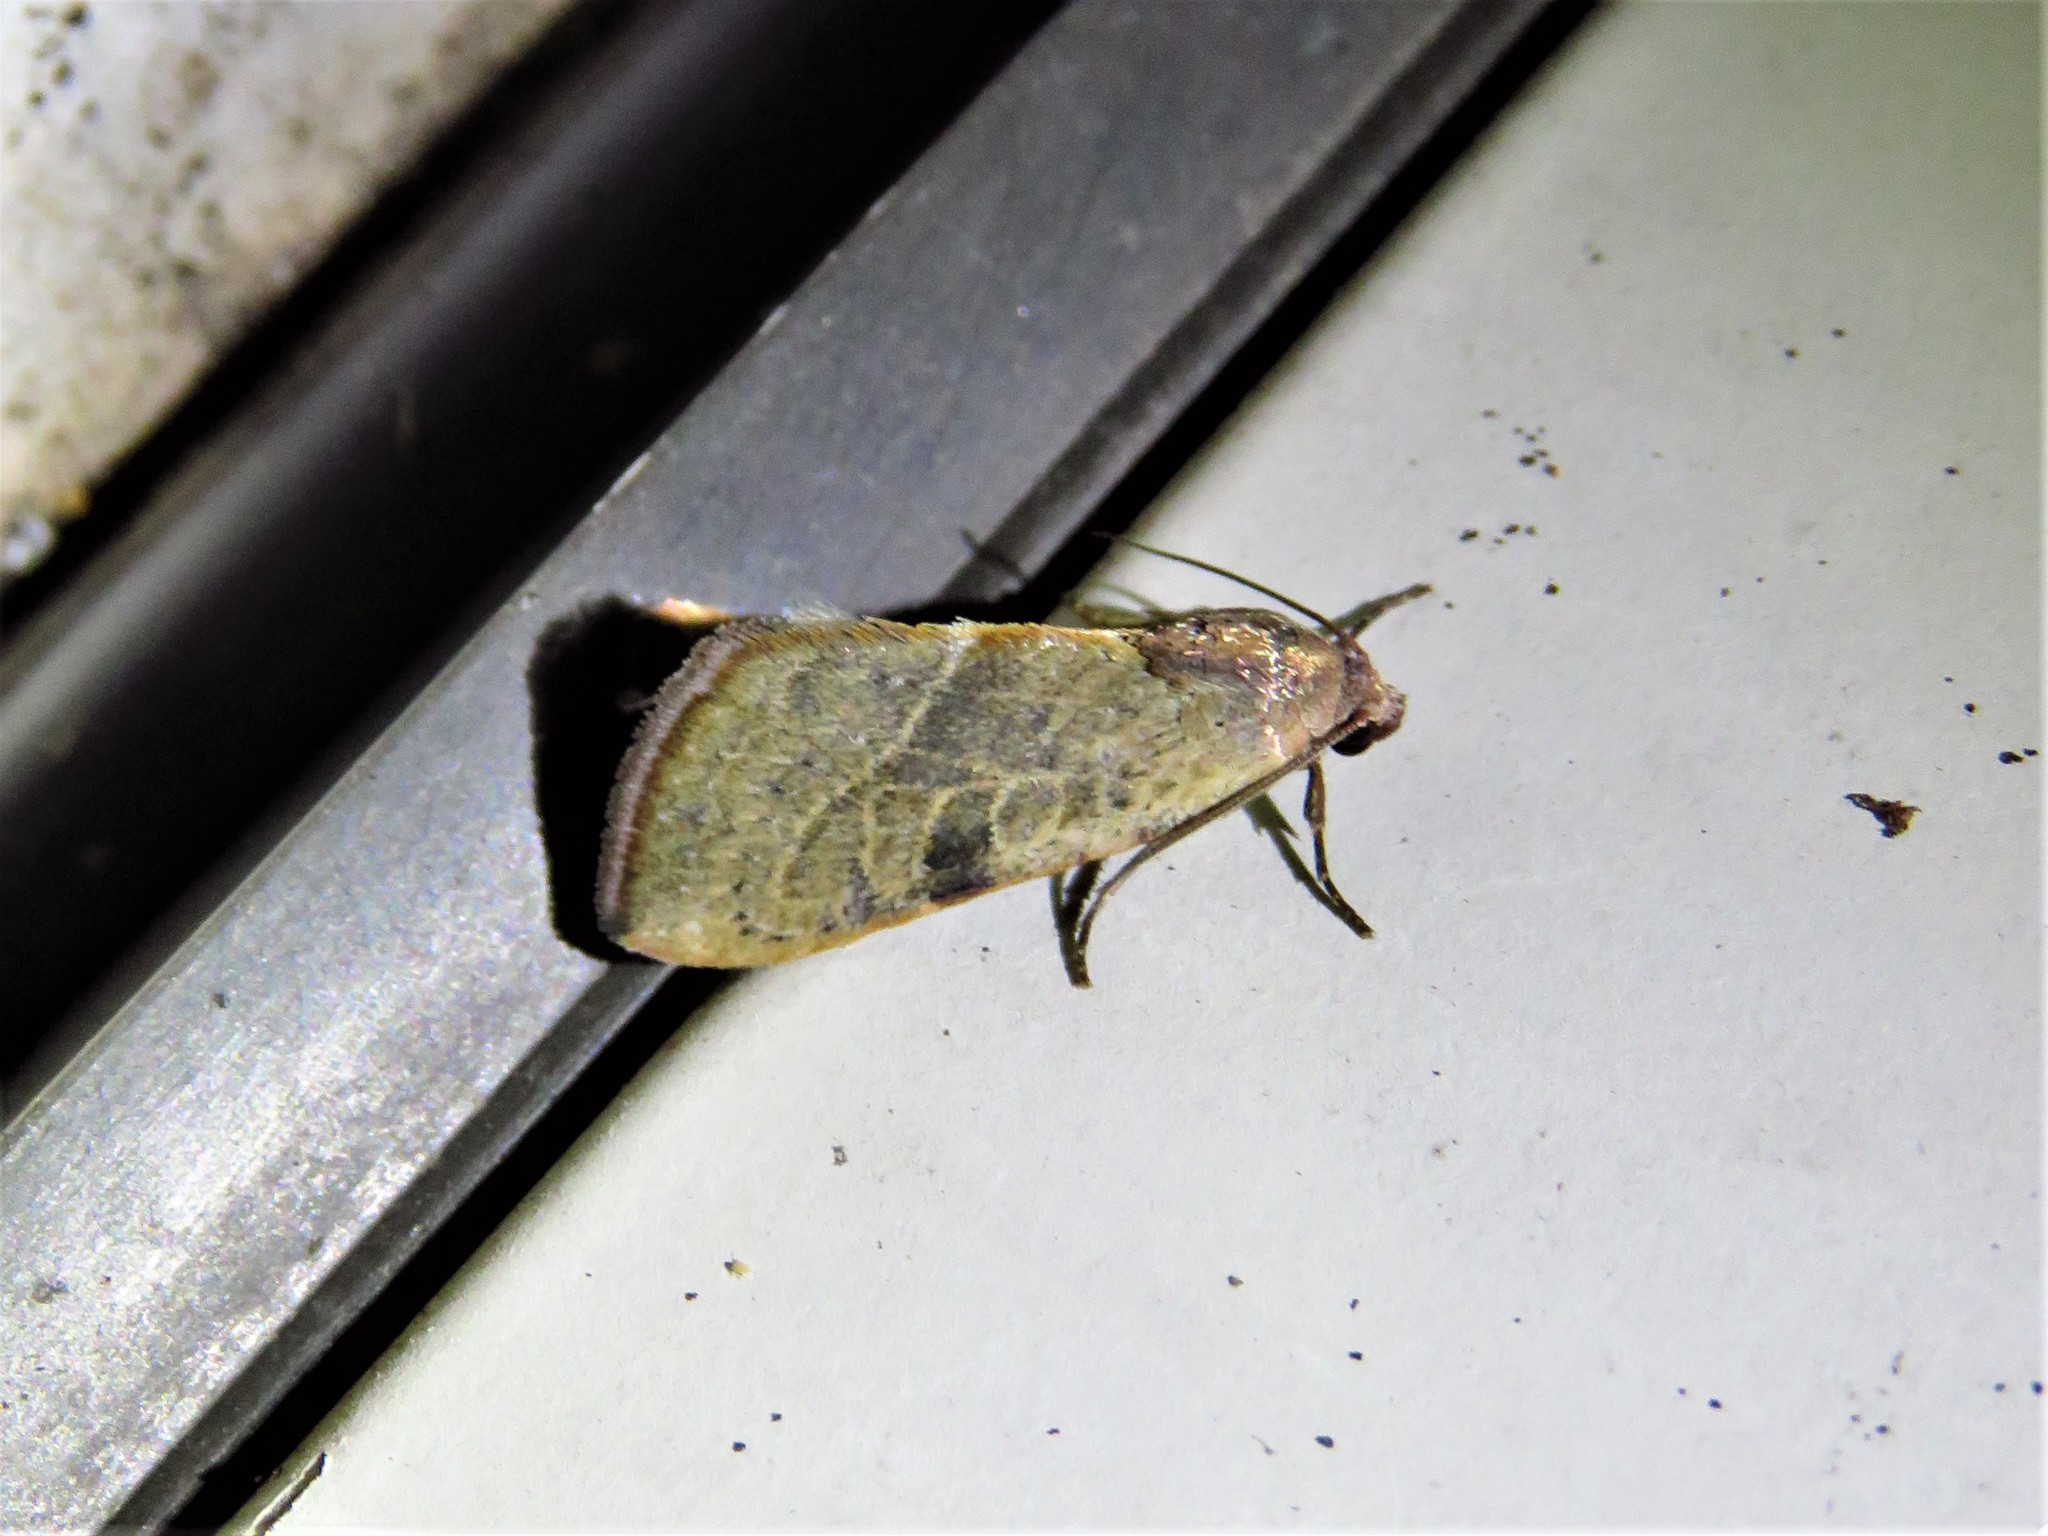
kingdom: Animalia
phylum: Arthropoda
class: Insecta
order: Lepidoptera
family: Noctuidae
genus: Galgula
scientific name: Galgula partita
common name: Wedgeling
